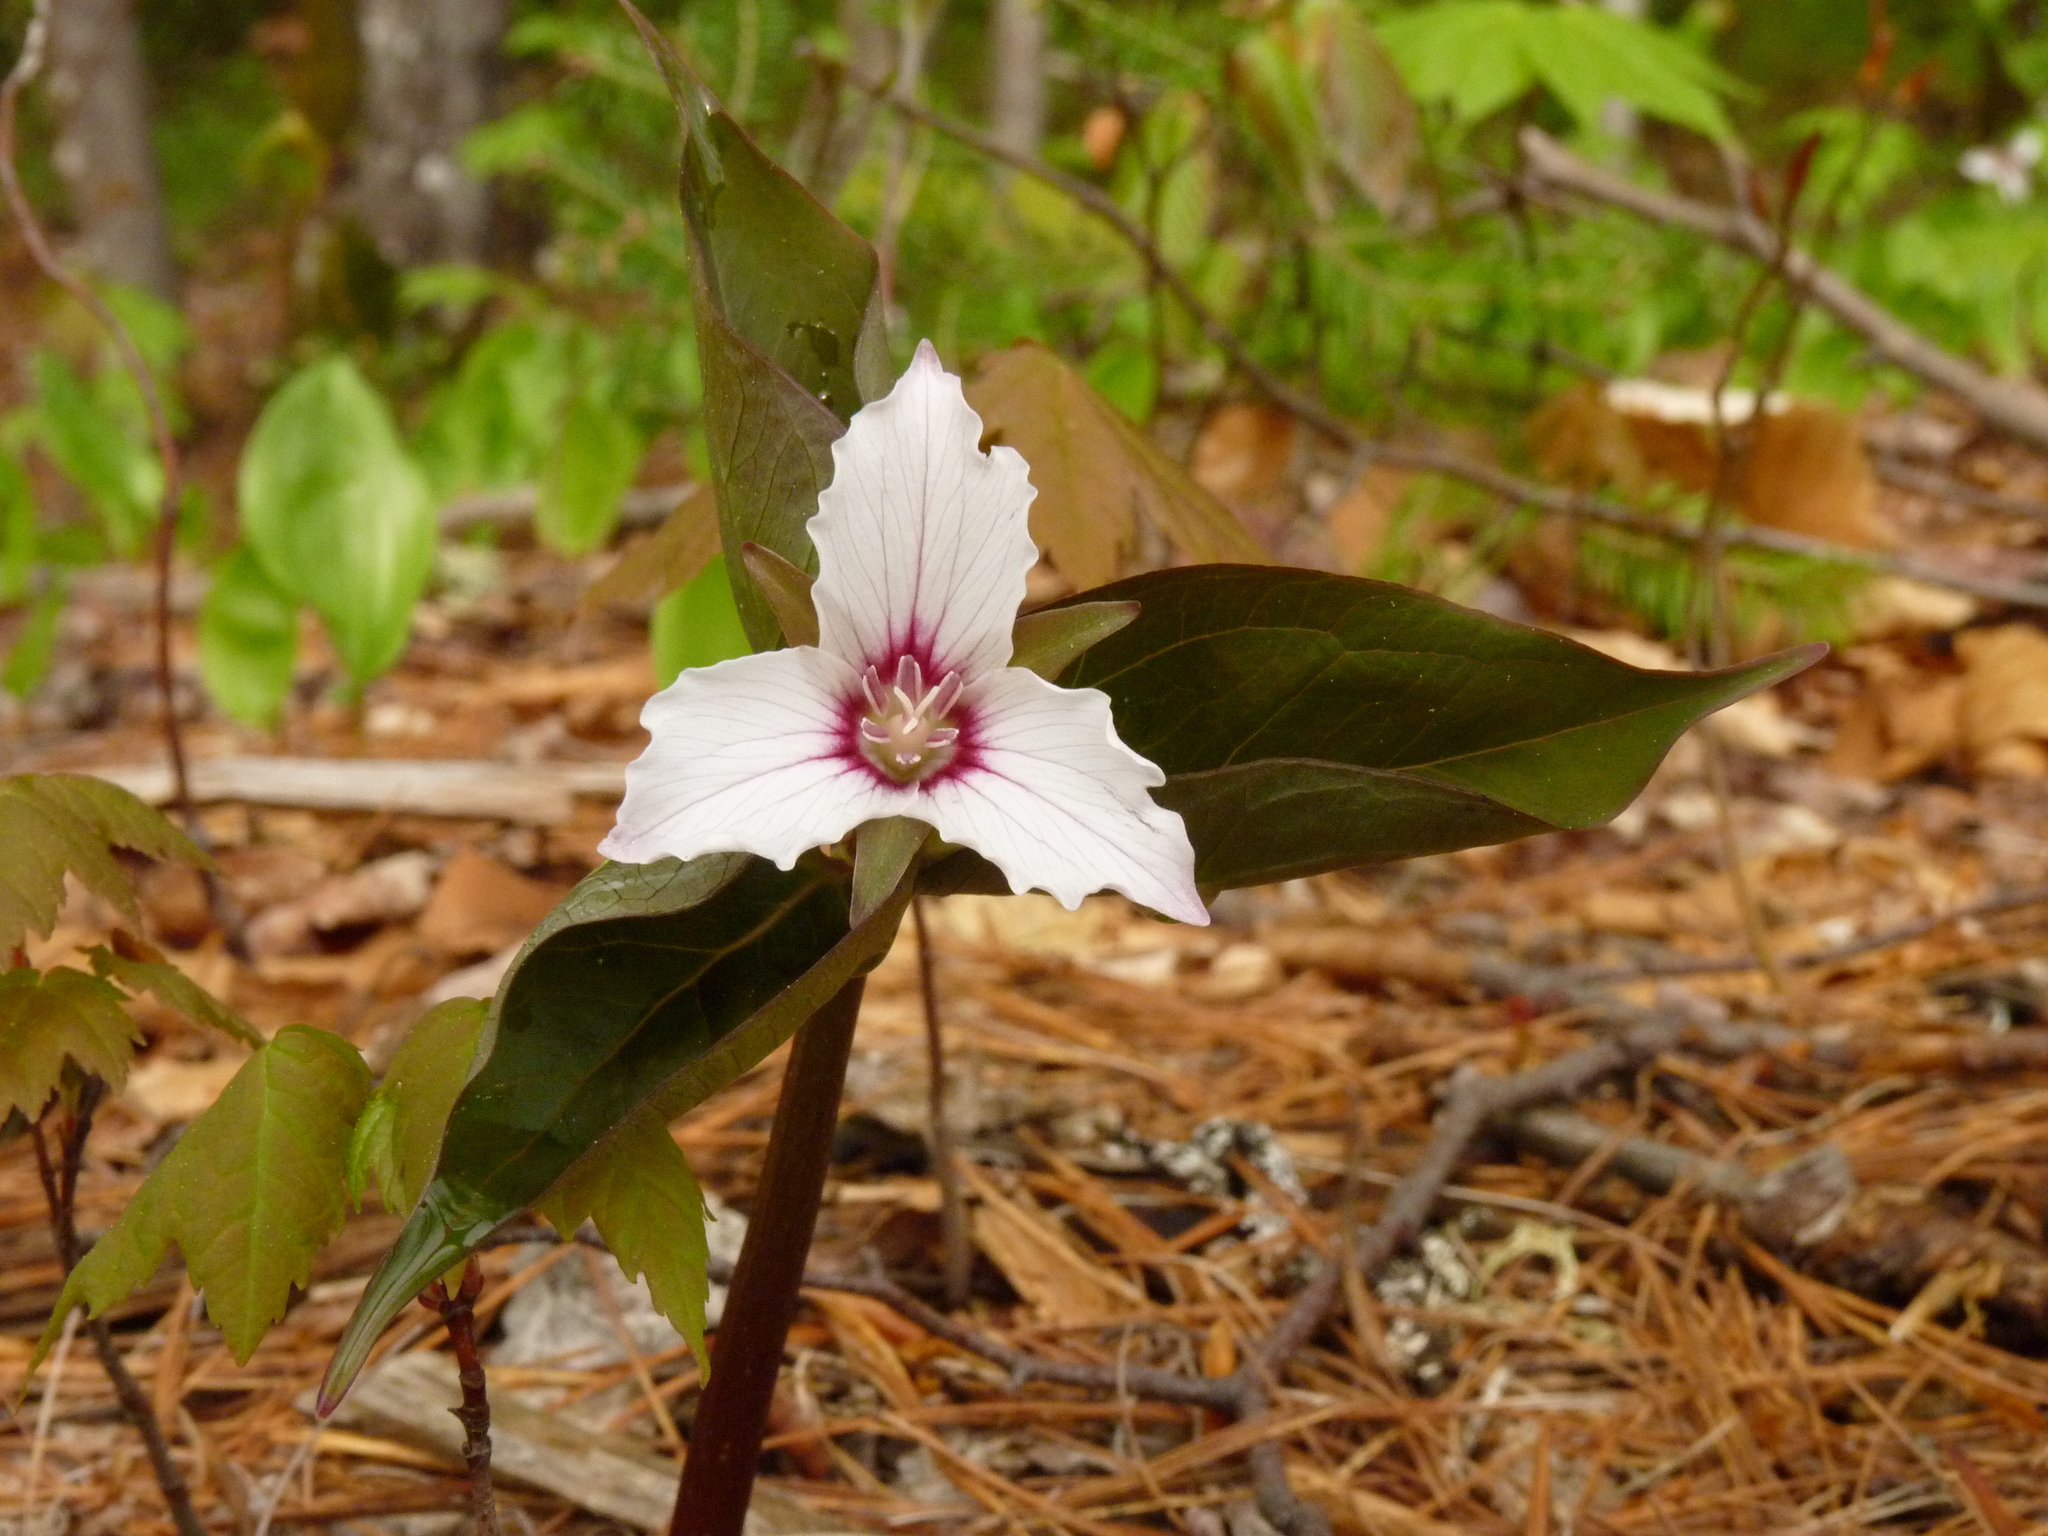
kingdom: Plantae
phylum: Tracheophyta
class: Liliopsida
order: Liliales
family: Melanthiaceae
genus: Trillium
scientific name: Trillium undulatum
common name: Paint trillium
